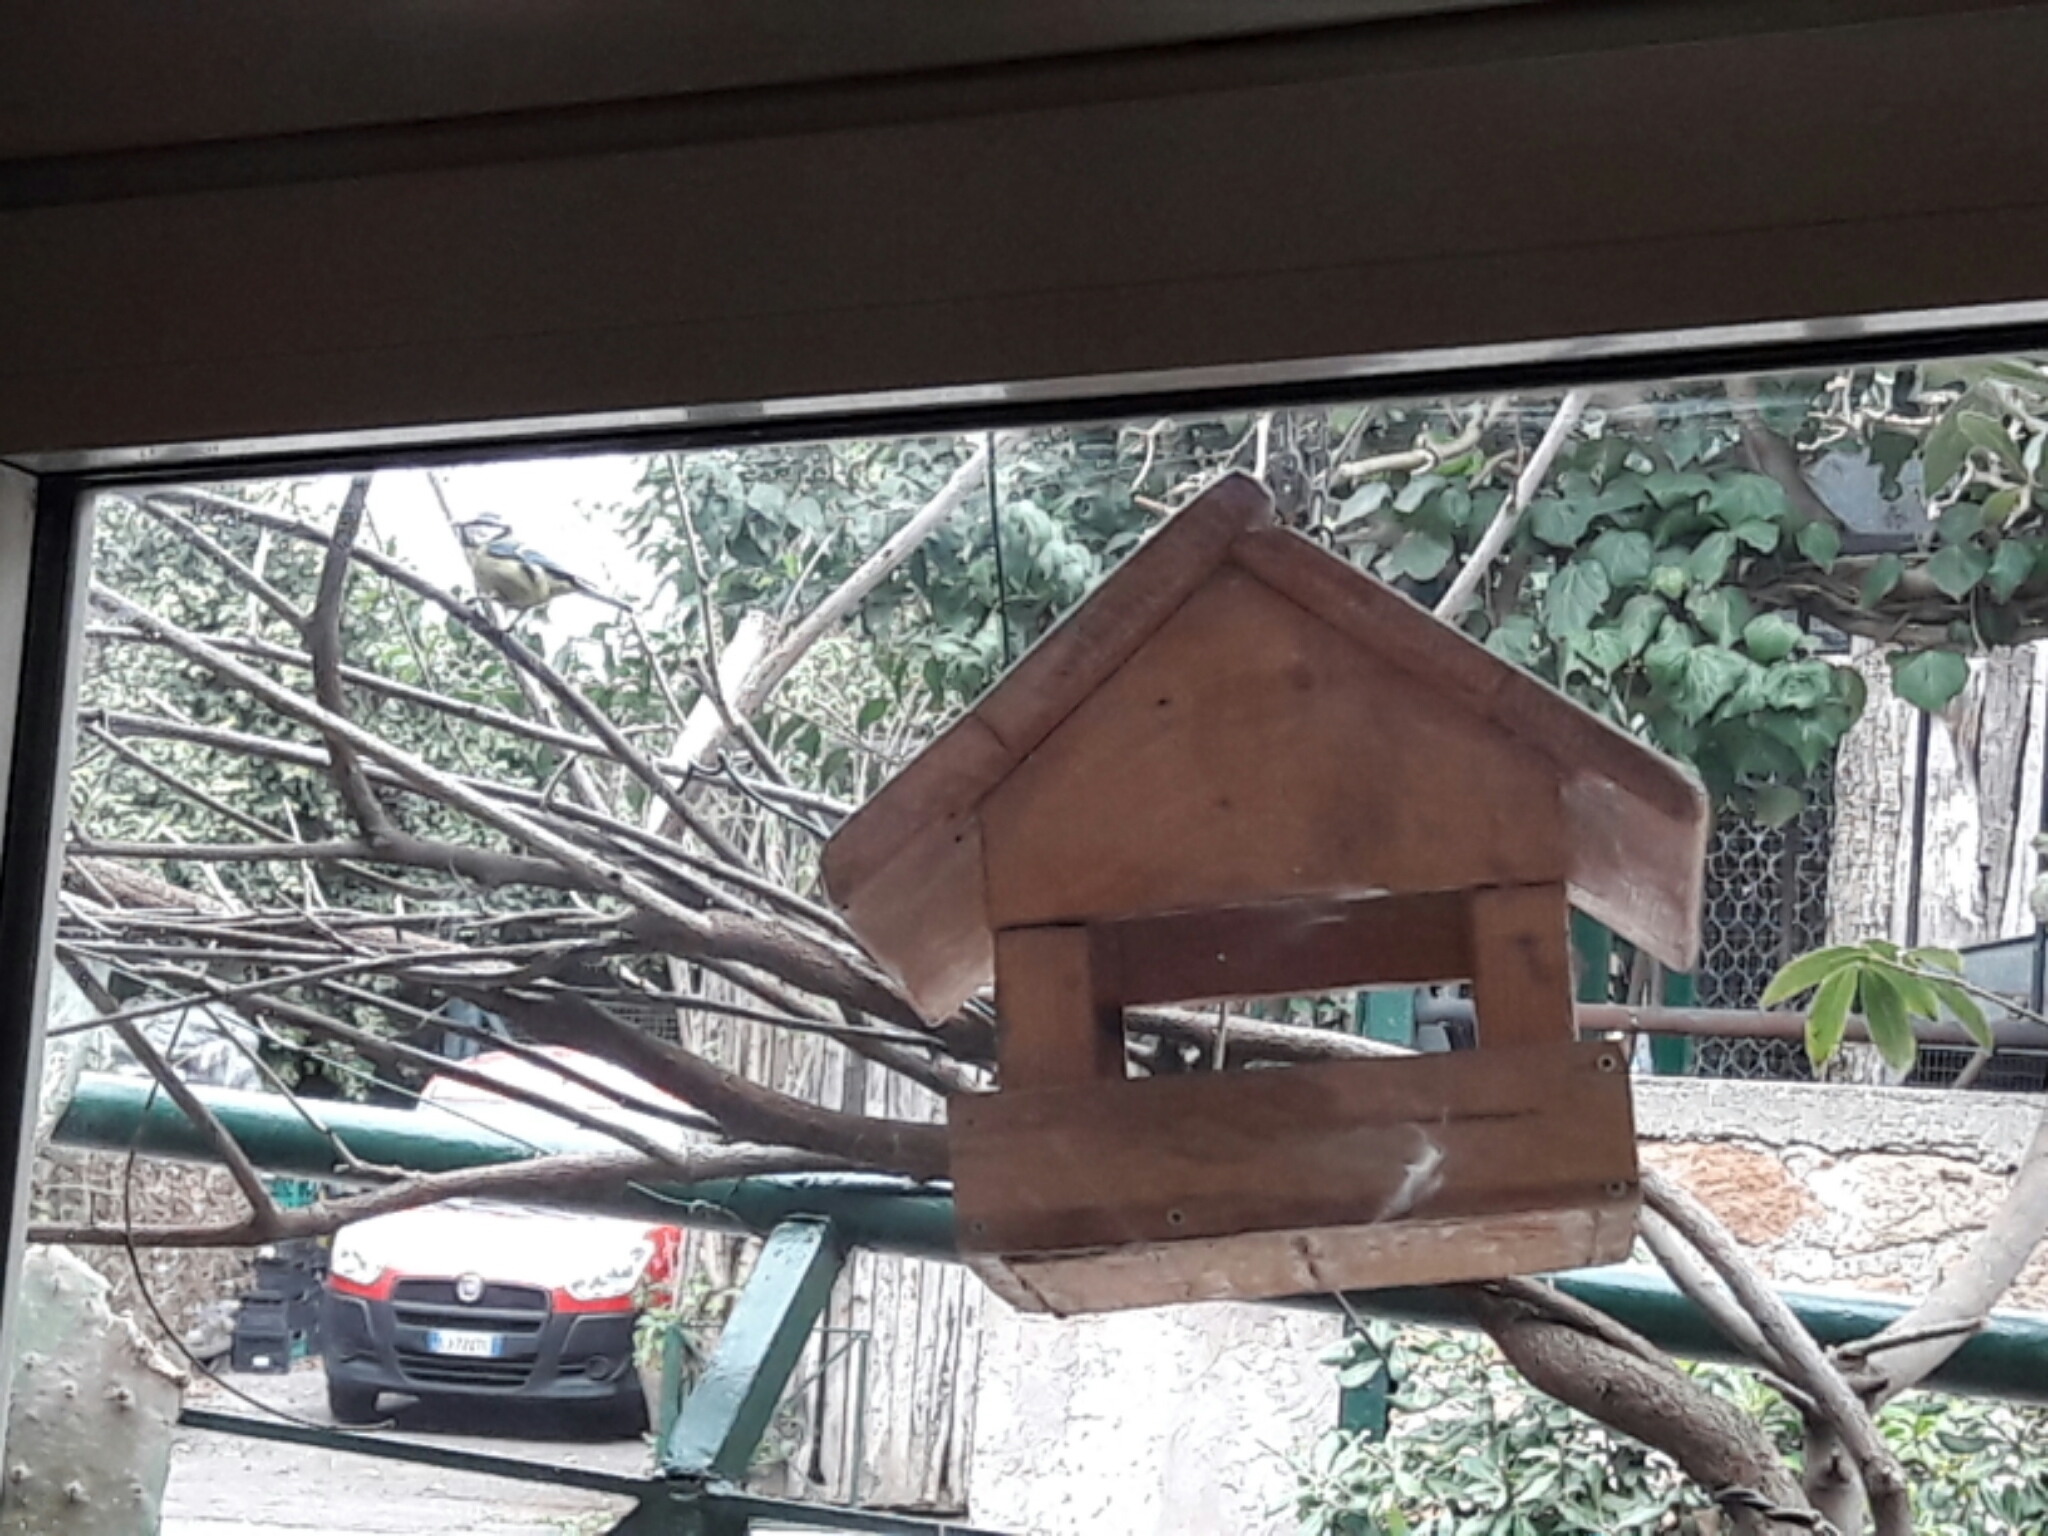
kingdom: Animalia
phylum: Chordata
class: Aves
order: Passeriformes
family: Paridae
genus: Cyanistes
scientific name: Cyanistes caeruleus
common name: Eurasian blue tit
